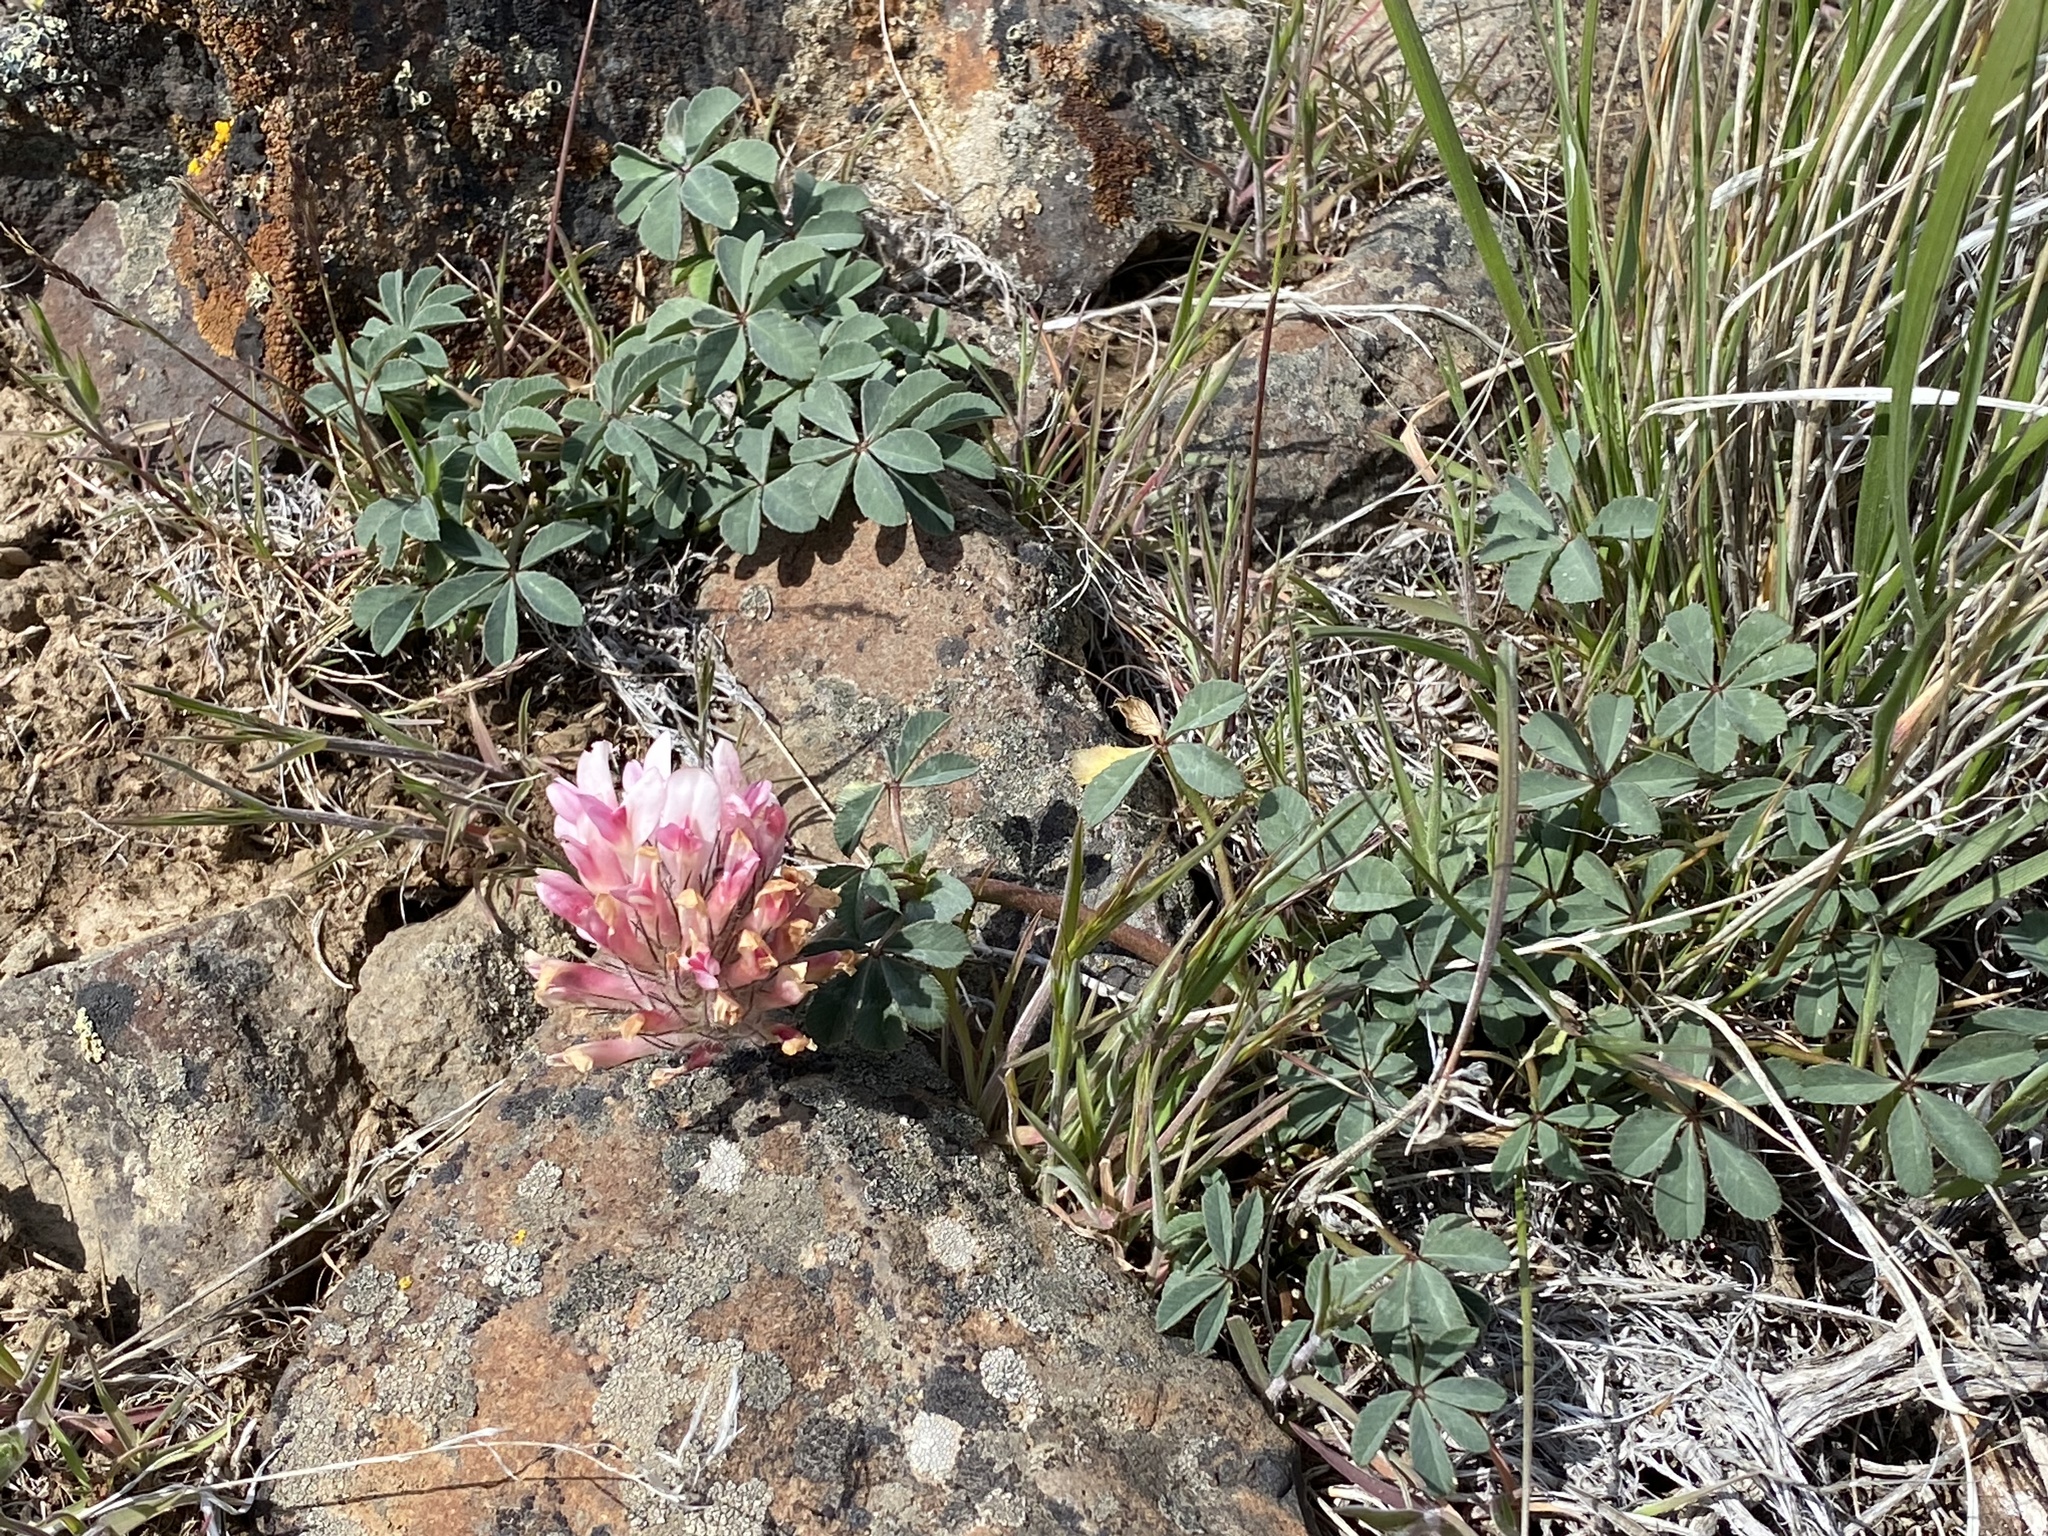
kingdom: Plantae
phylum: Tracheophyta
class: Magnoliopsida
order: Fabales
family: Fabaceae
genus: Trifolium
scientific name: Trifolium macrocephalum
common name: Large-head clover
